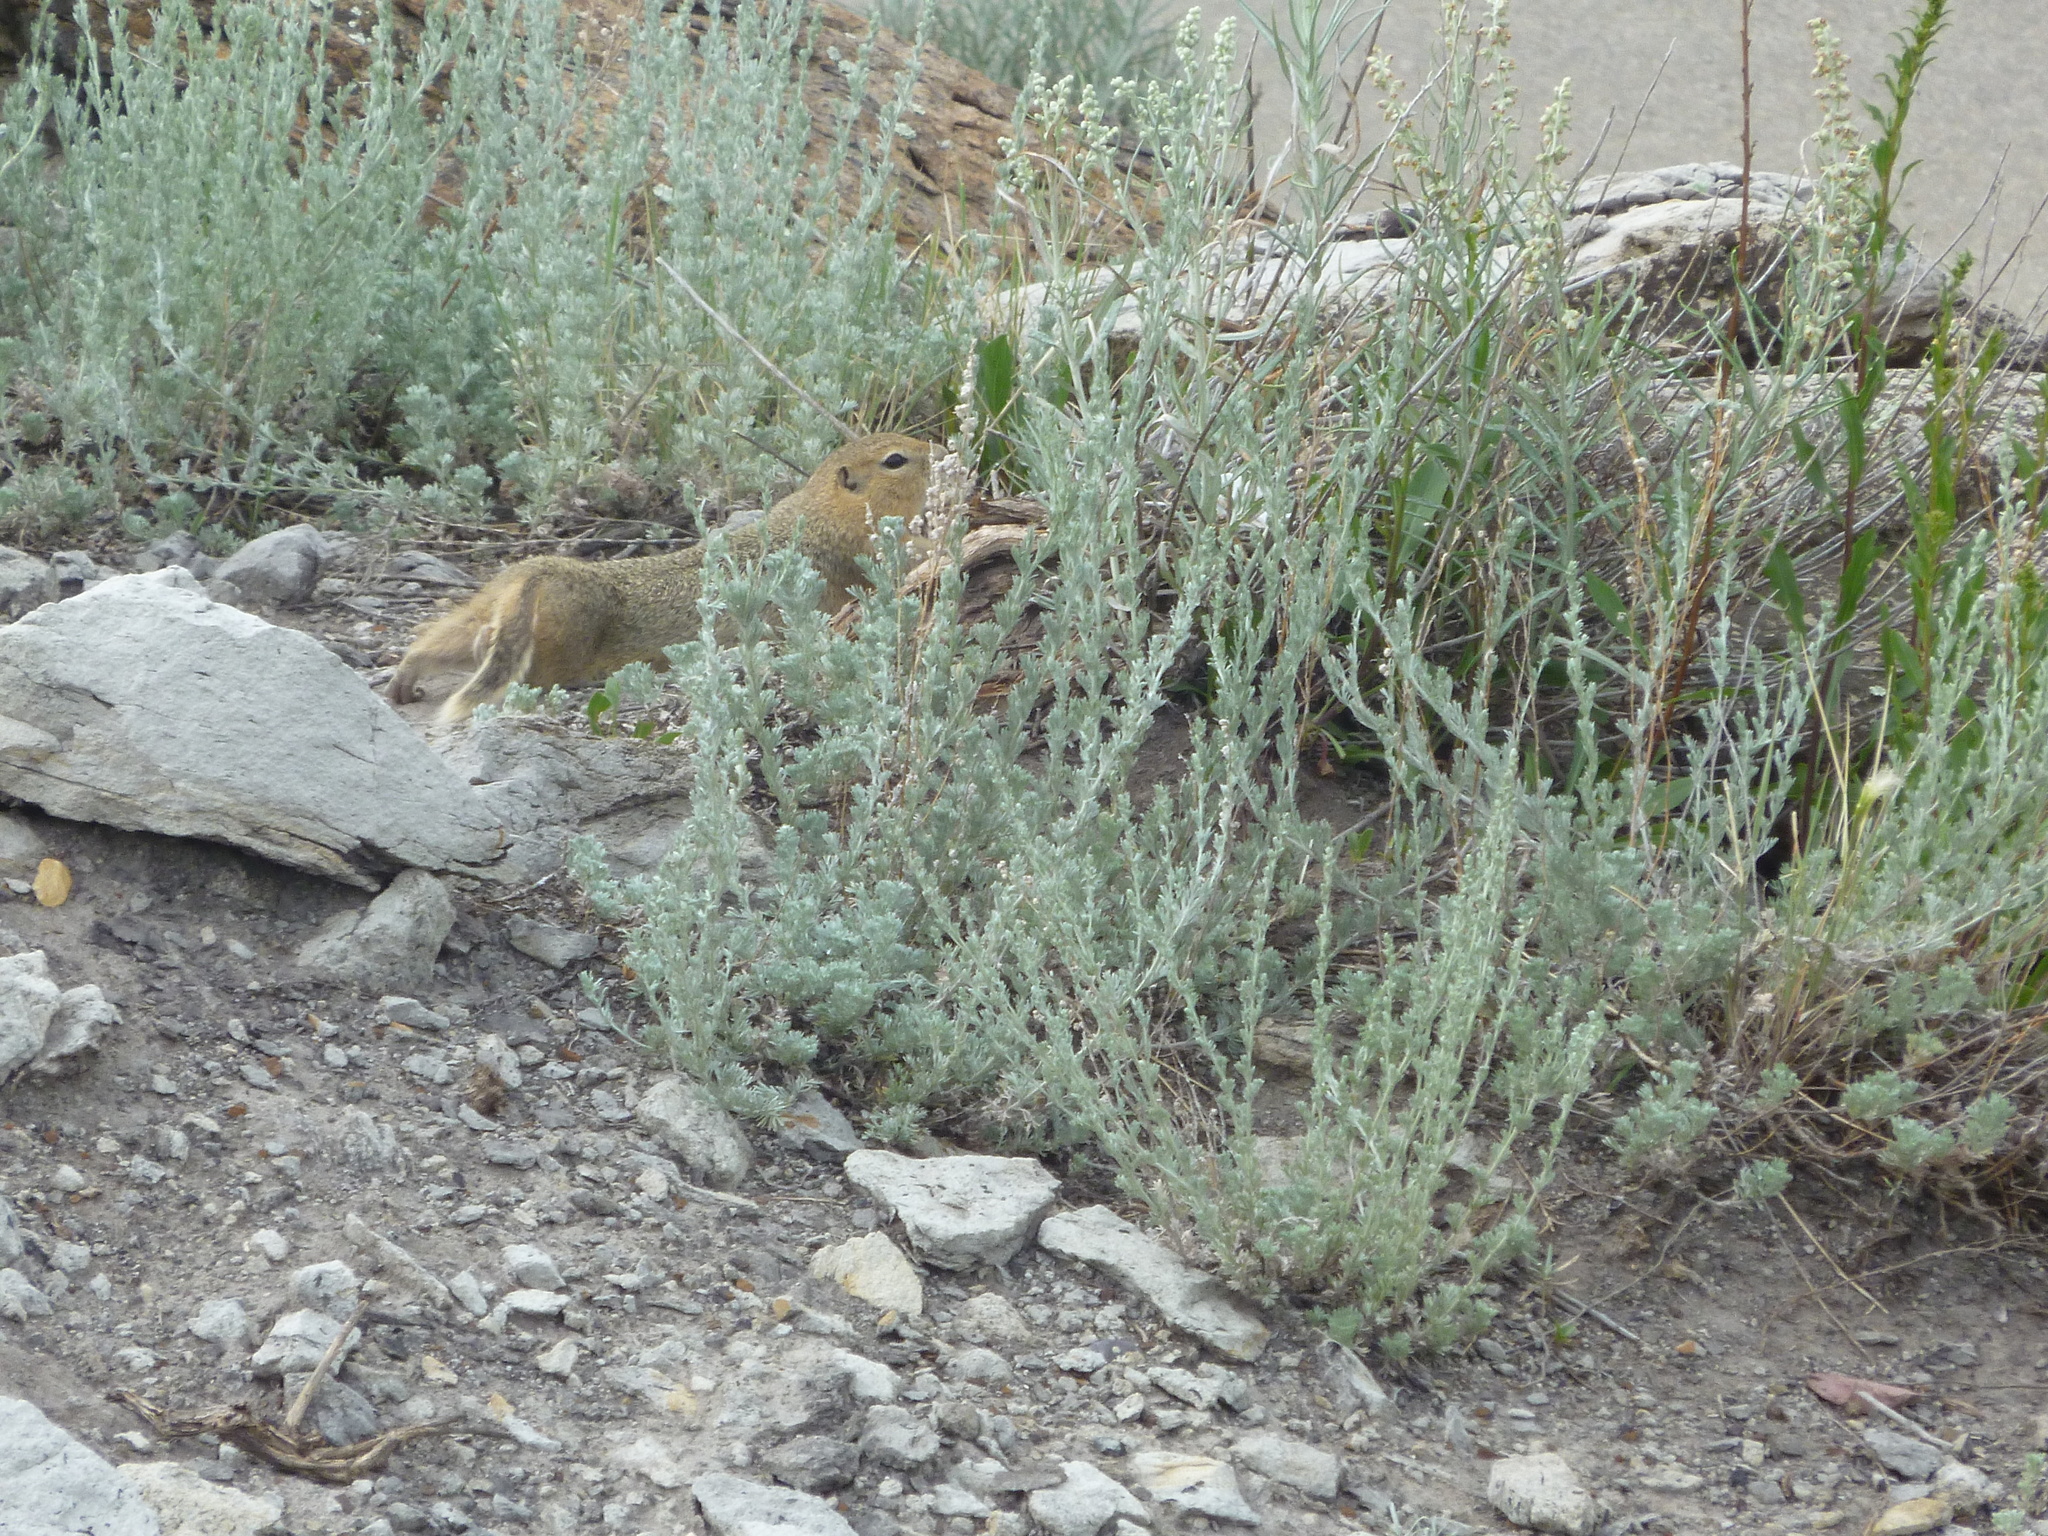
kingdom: Animalia
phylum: Chordata
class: Mammalia
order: Rodentia
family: Sciuridae
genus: Urocitellus
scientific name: Urocitellus richardsonii
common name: Richardson's ground squirrel
